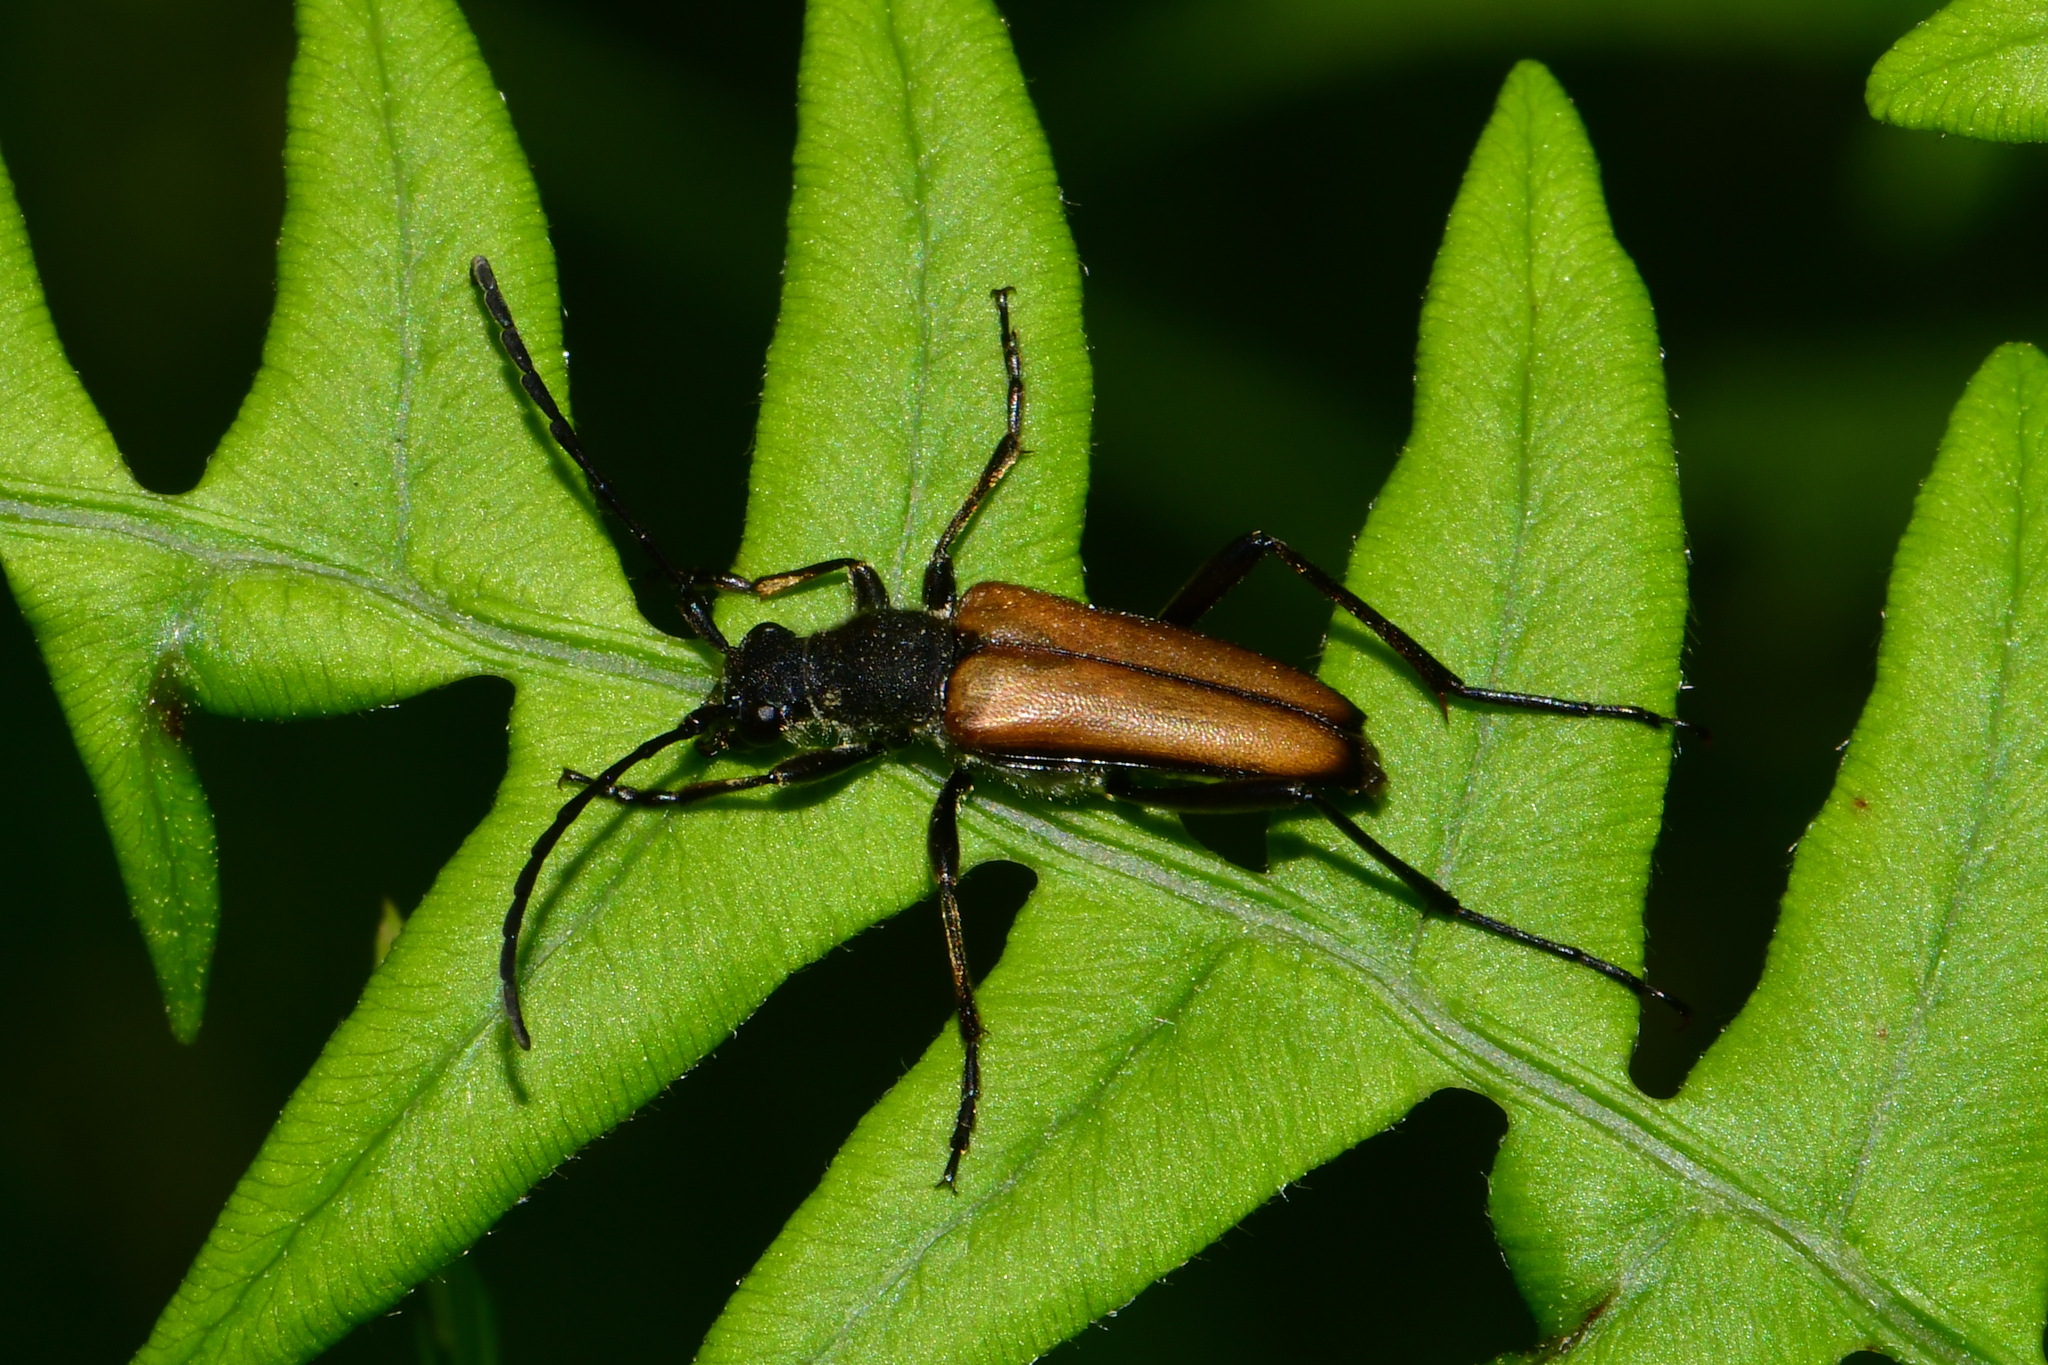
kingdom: Animalia
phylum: Arthropoda
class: Insecta
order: Coleoptera
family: Cerambycidae
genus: Anastrangalia
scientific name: Anastrangalia reyi
